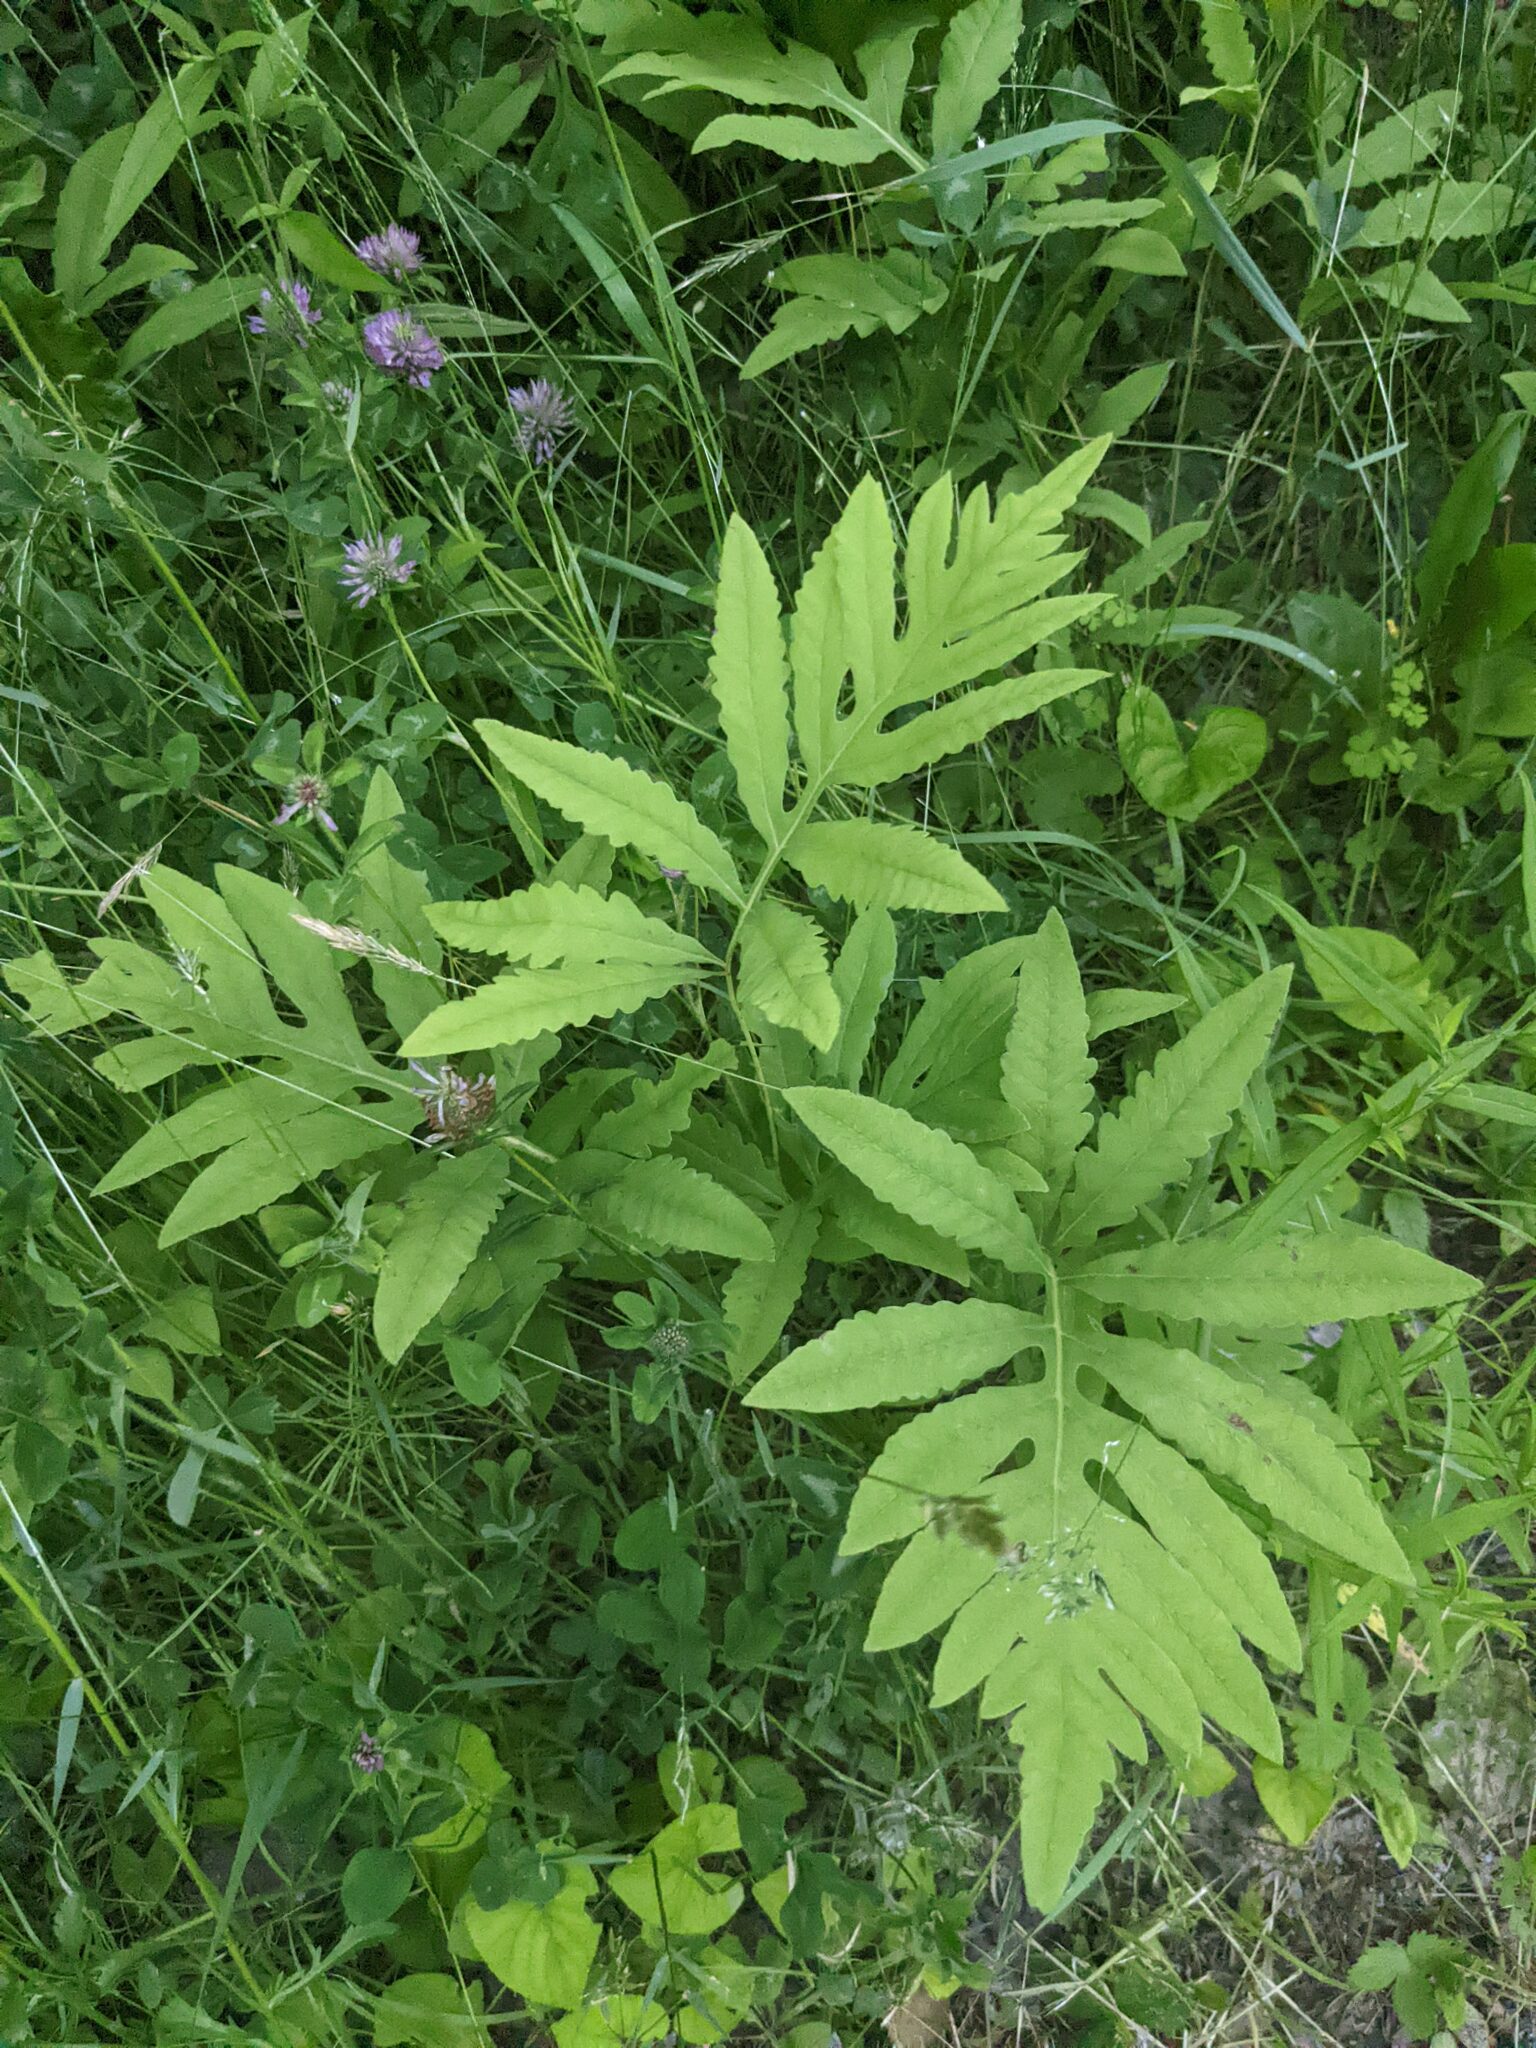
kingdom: Plantae
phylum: Tracheophyta
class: Polypodiopsida
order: Polypodiales
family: Onocleaceae
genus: Onoclea
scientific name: Onoclea sensibilis
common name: Sensitive fern
